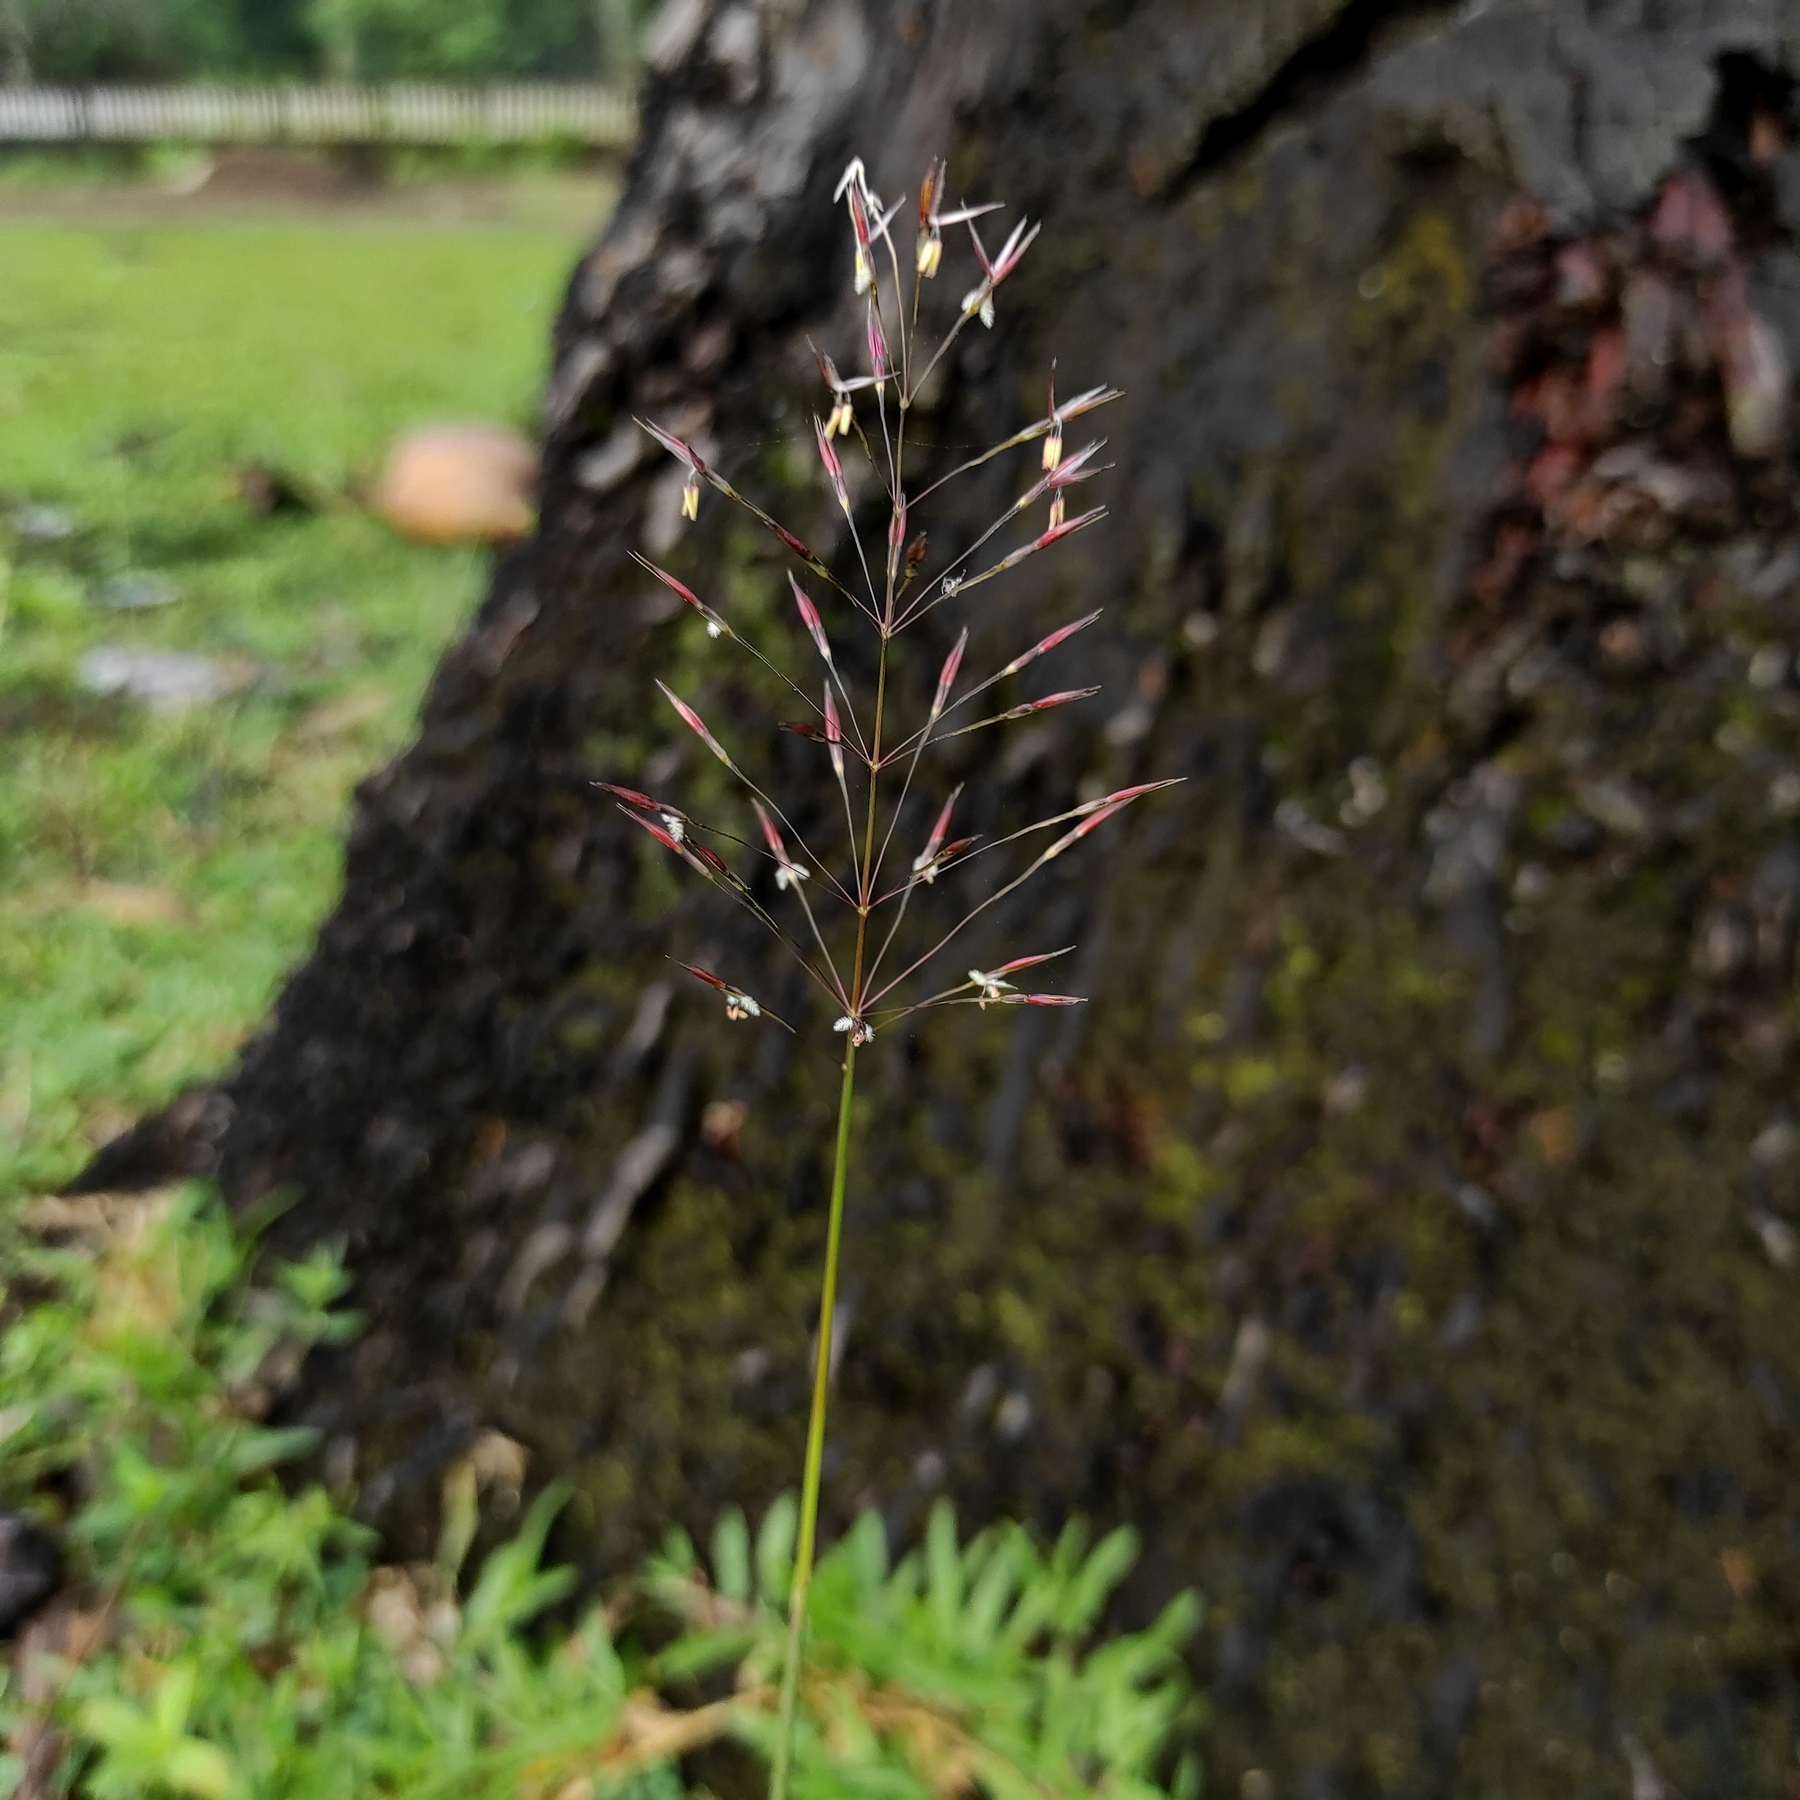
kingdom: Plantae
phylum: Tracheophyta
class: Liliopsida
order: Poales
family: Poaceae
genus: Chrysopogon
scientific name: Chrysopogon aciculatus
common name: Pilipiliula
